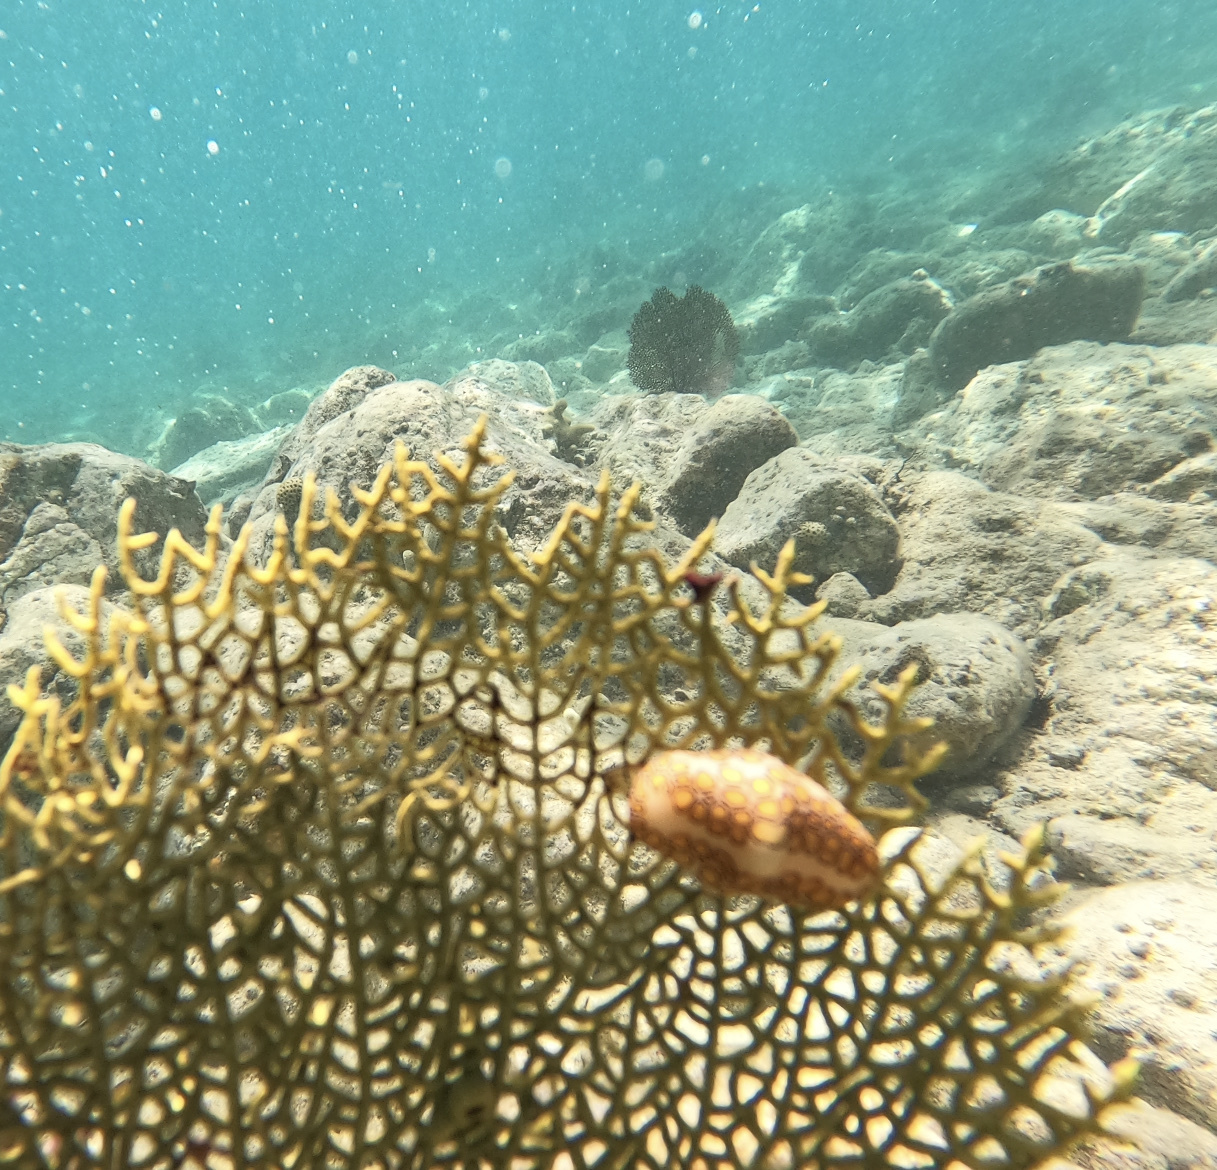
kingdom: Animalia
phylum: Mollusca
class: Gastropoda
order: Littorinimorpha
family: Ovulidae
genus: Cyphoma
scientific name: Cyphoma gibbosum
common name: Flamingo tongue
